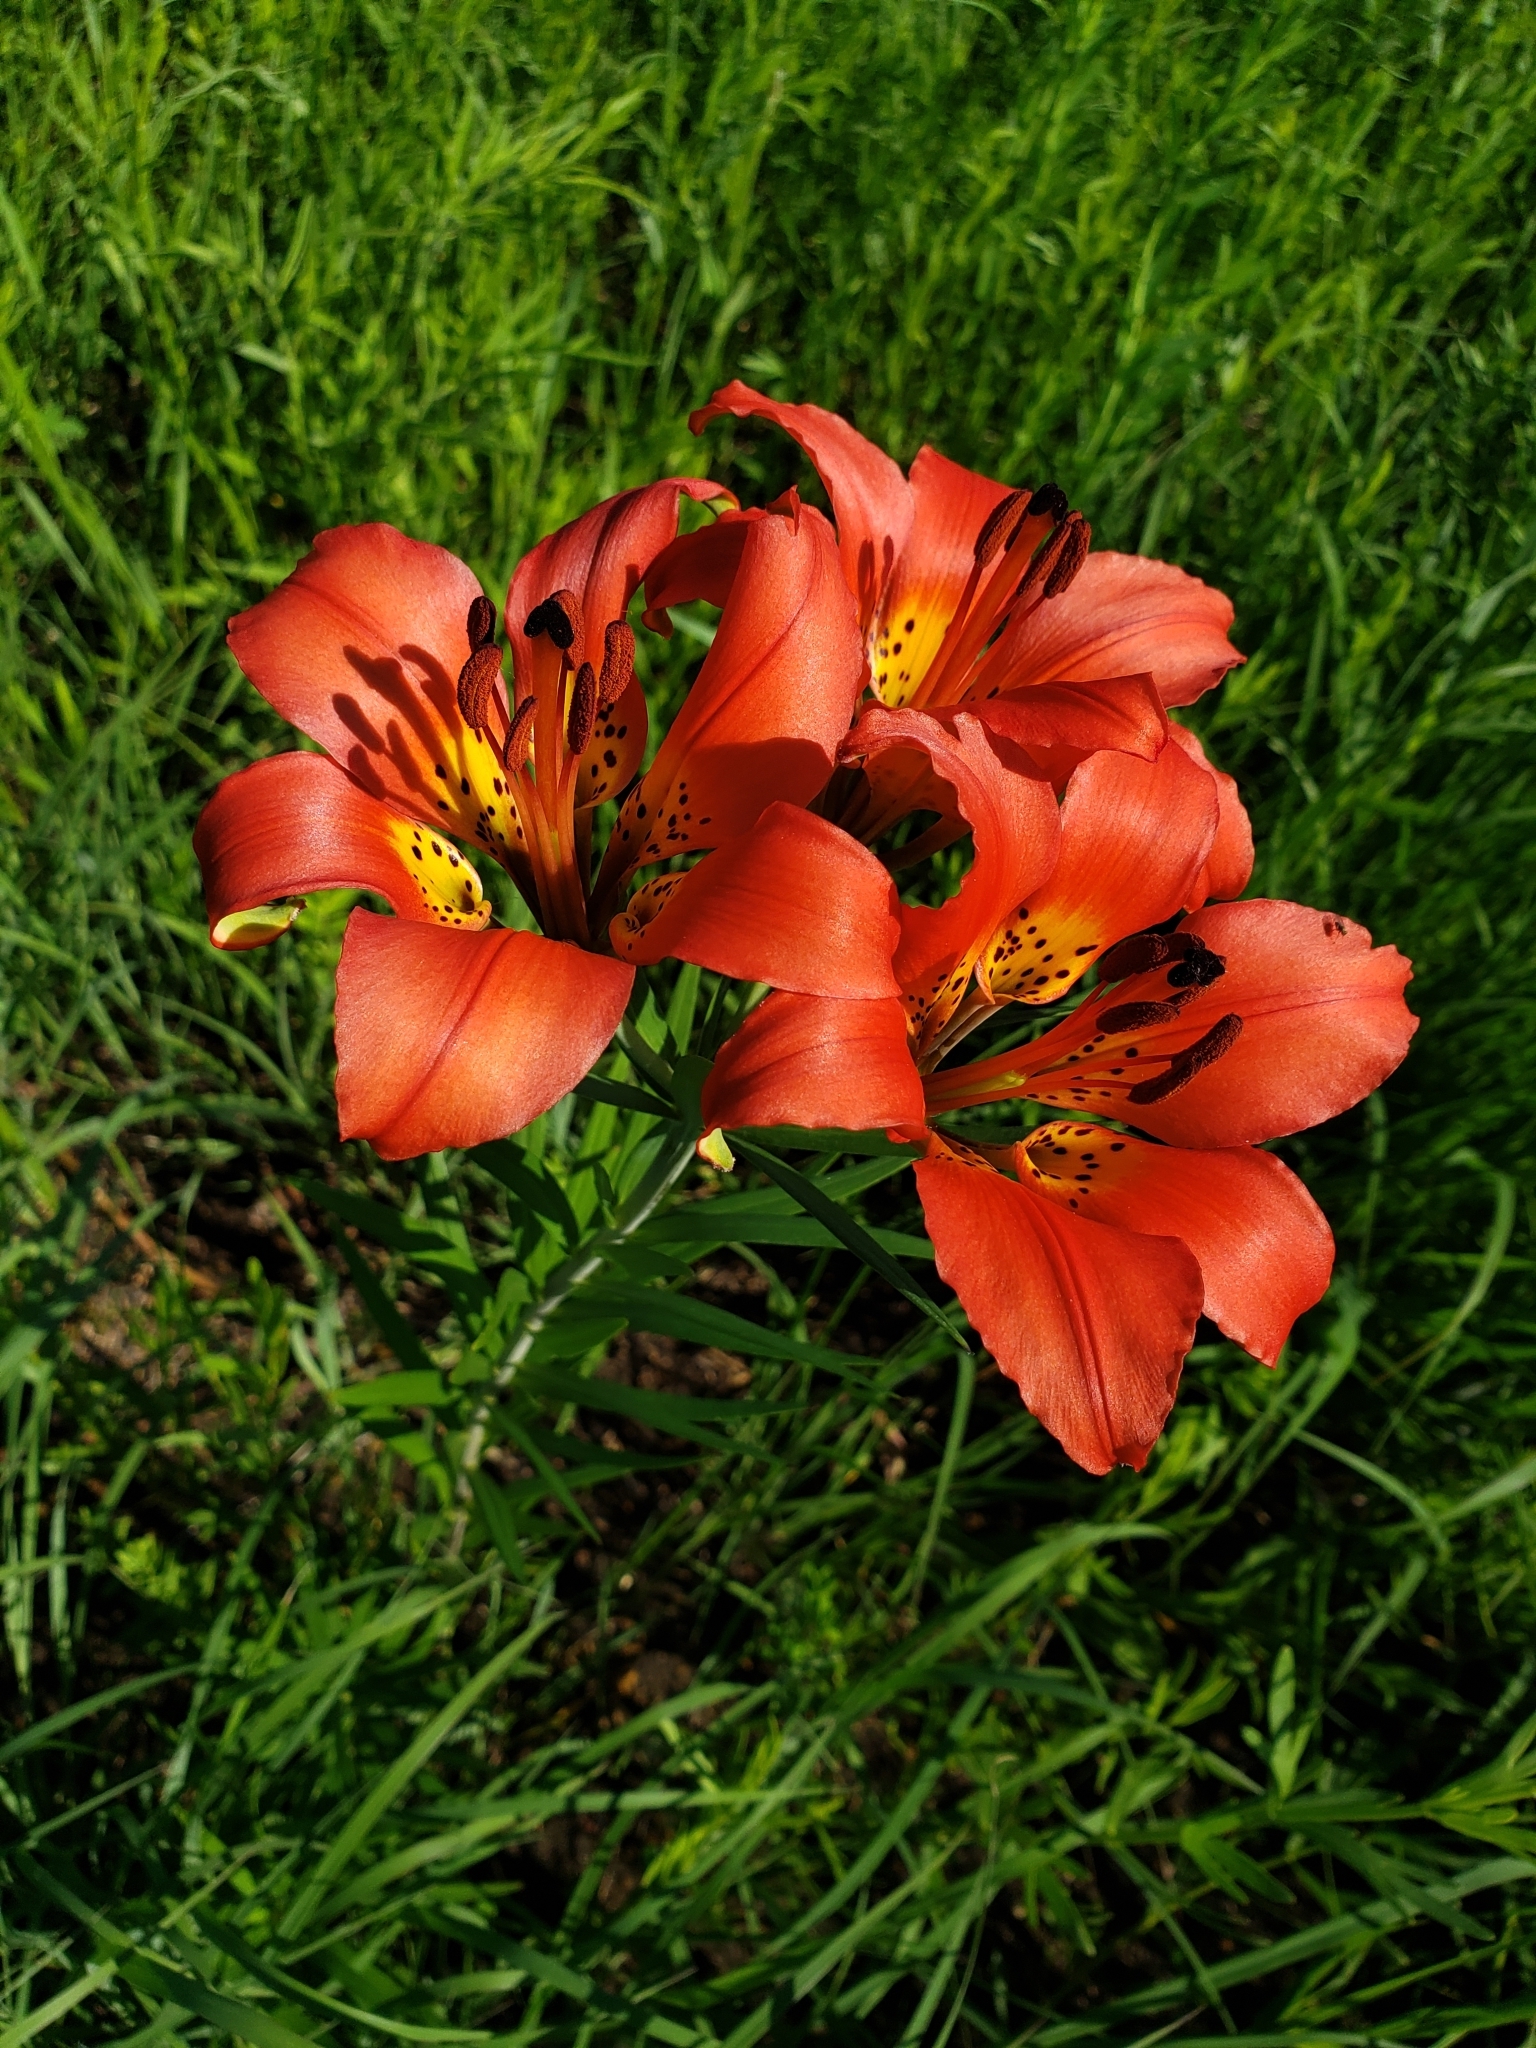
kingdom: Plantae
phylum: Tracheophyta
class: Liliopsida
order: Liliales
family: Liliaceae
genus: Lilium
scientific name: Lilium philadelphicum
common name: Red lily
